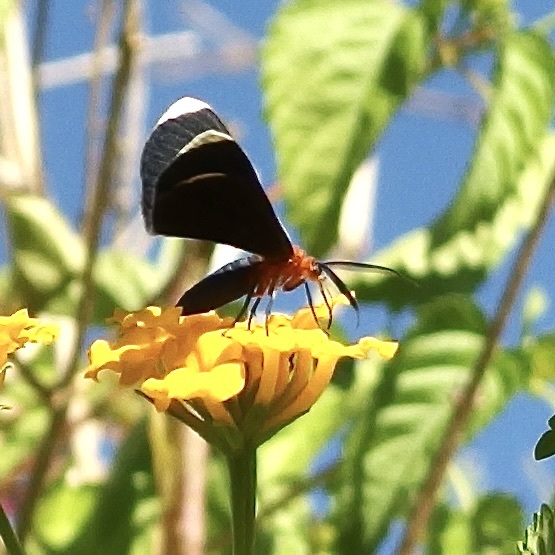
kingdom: Animalia
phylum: Arthropoda
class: Insecta
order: Lepidoptera
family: Geometridae
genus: Melanchroia
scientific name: Melanchroia chephise
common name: White-tipped black
